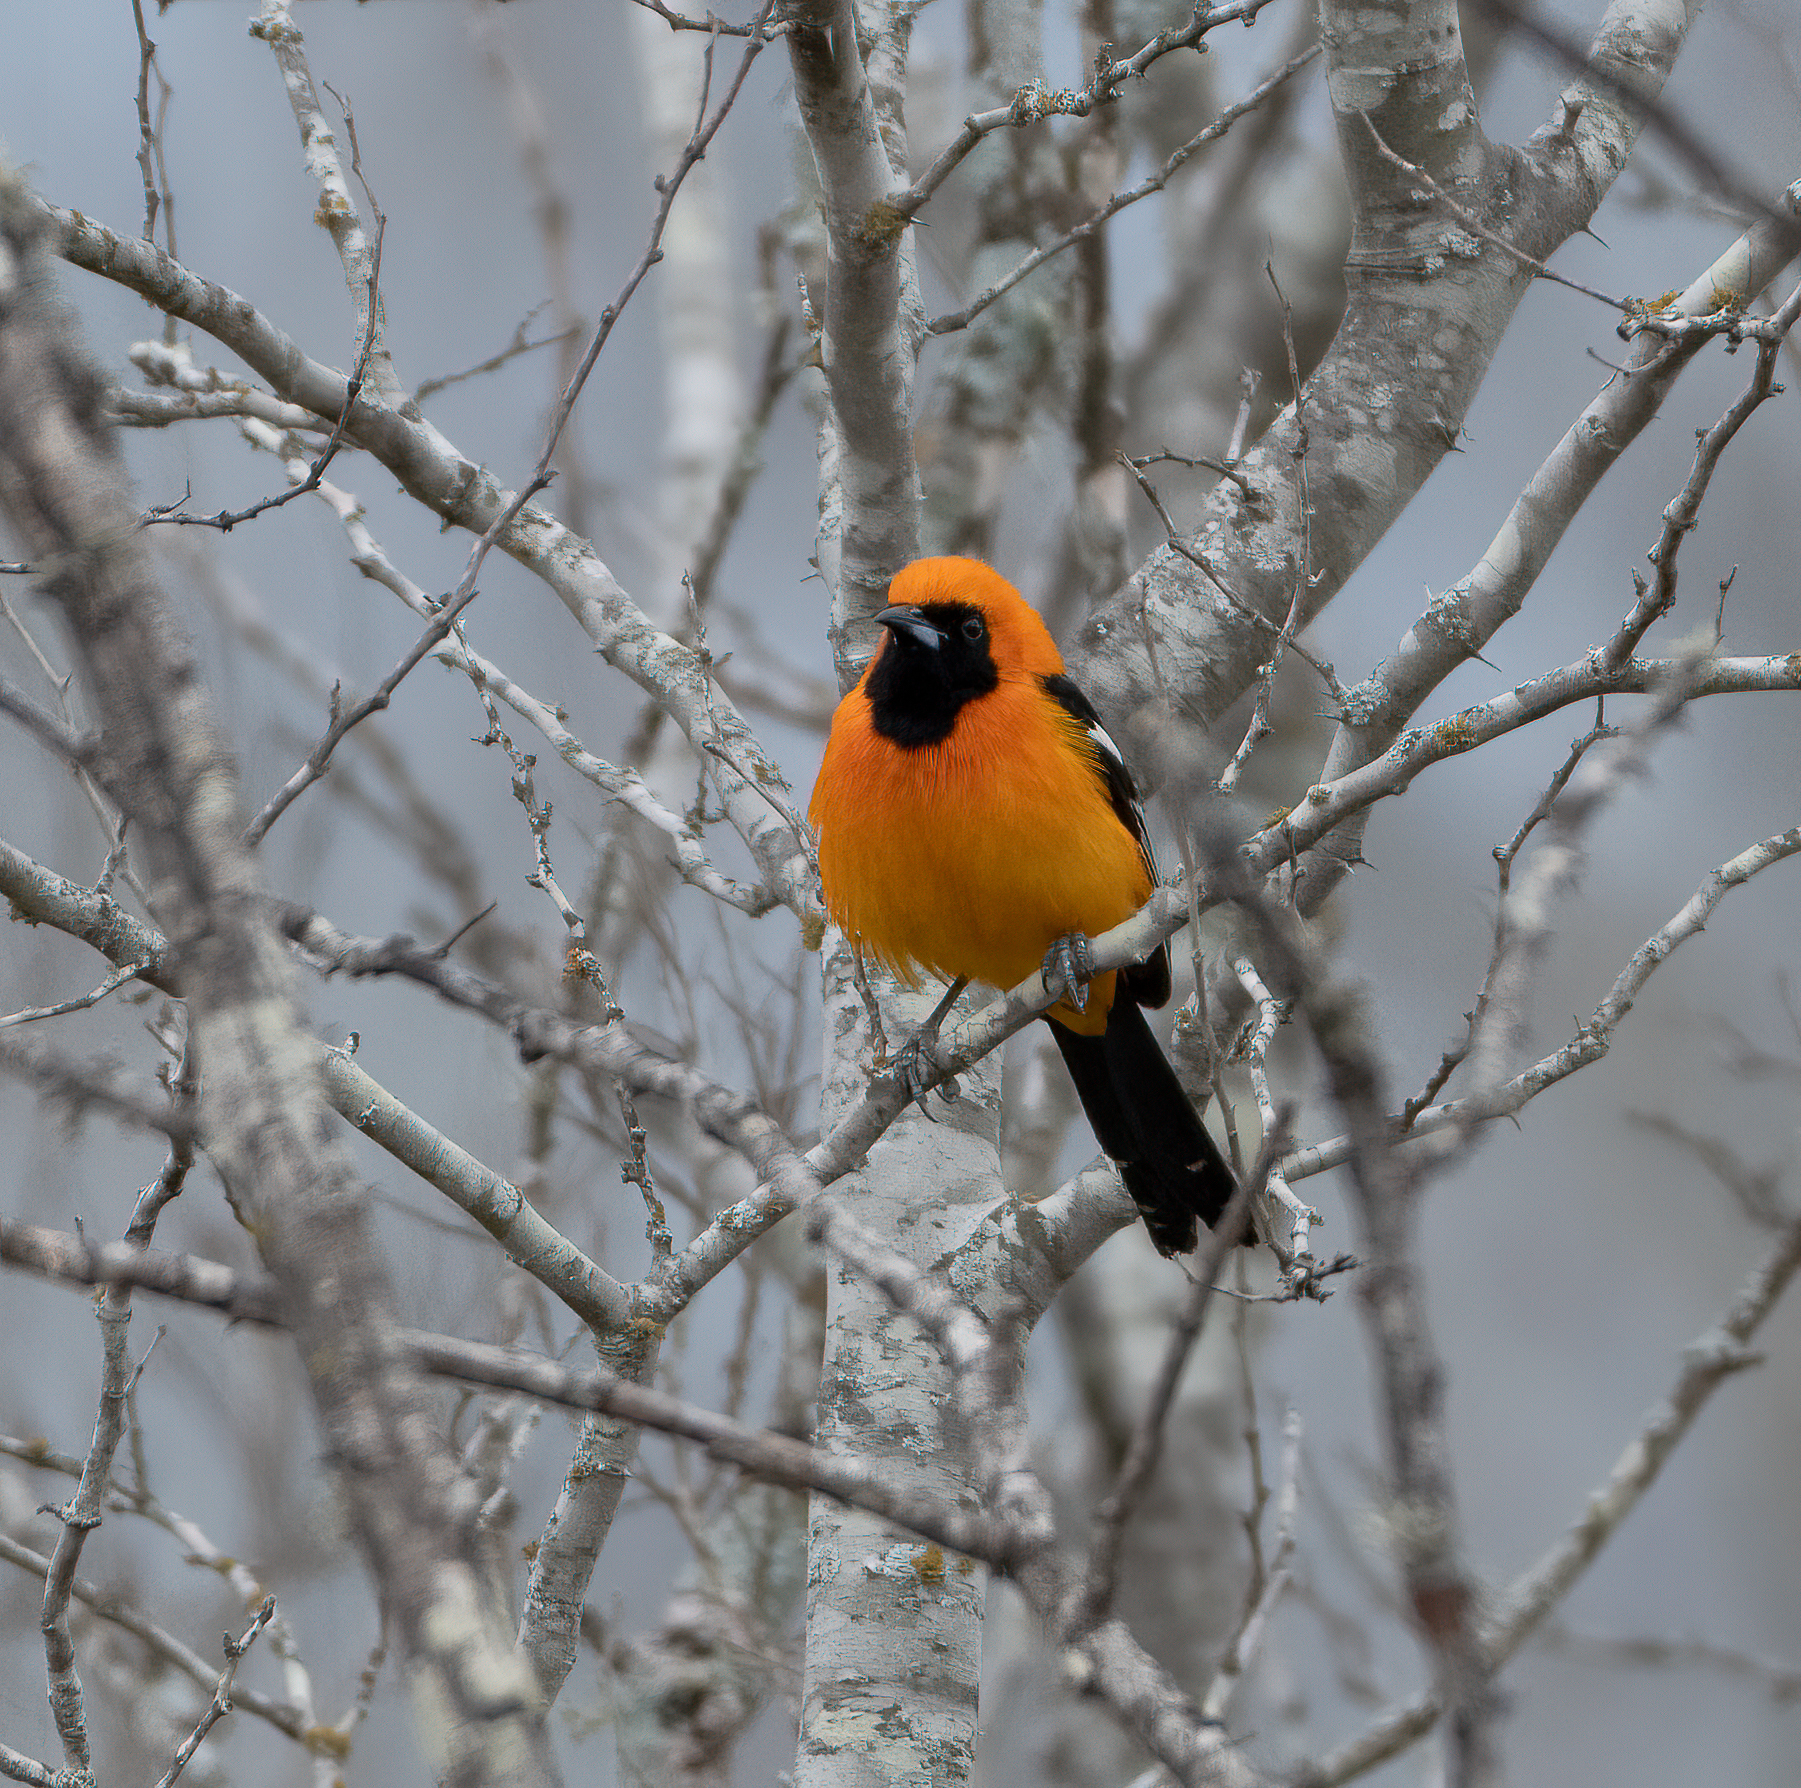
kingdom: Animalia
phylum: Chordata
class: Aves
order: Passeriformes
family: Icteridae
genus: Icterus
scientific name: Icterus cucullatus
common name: Hooded oriole
